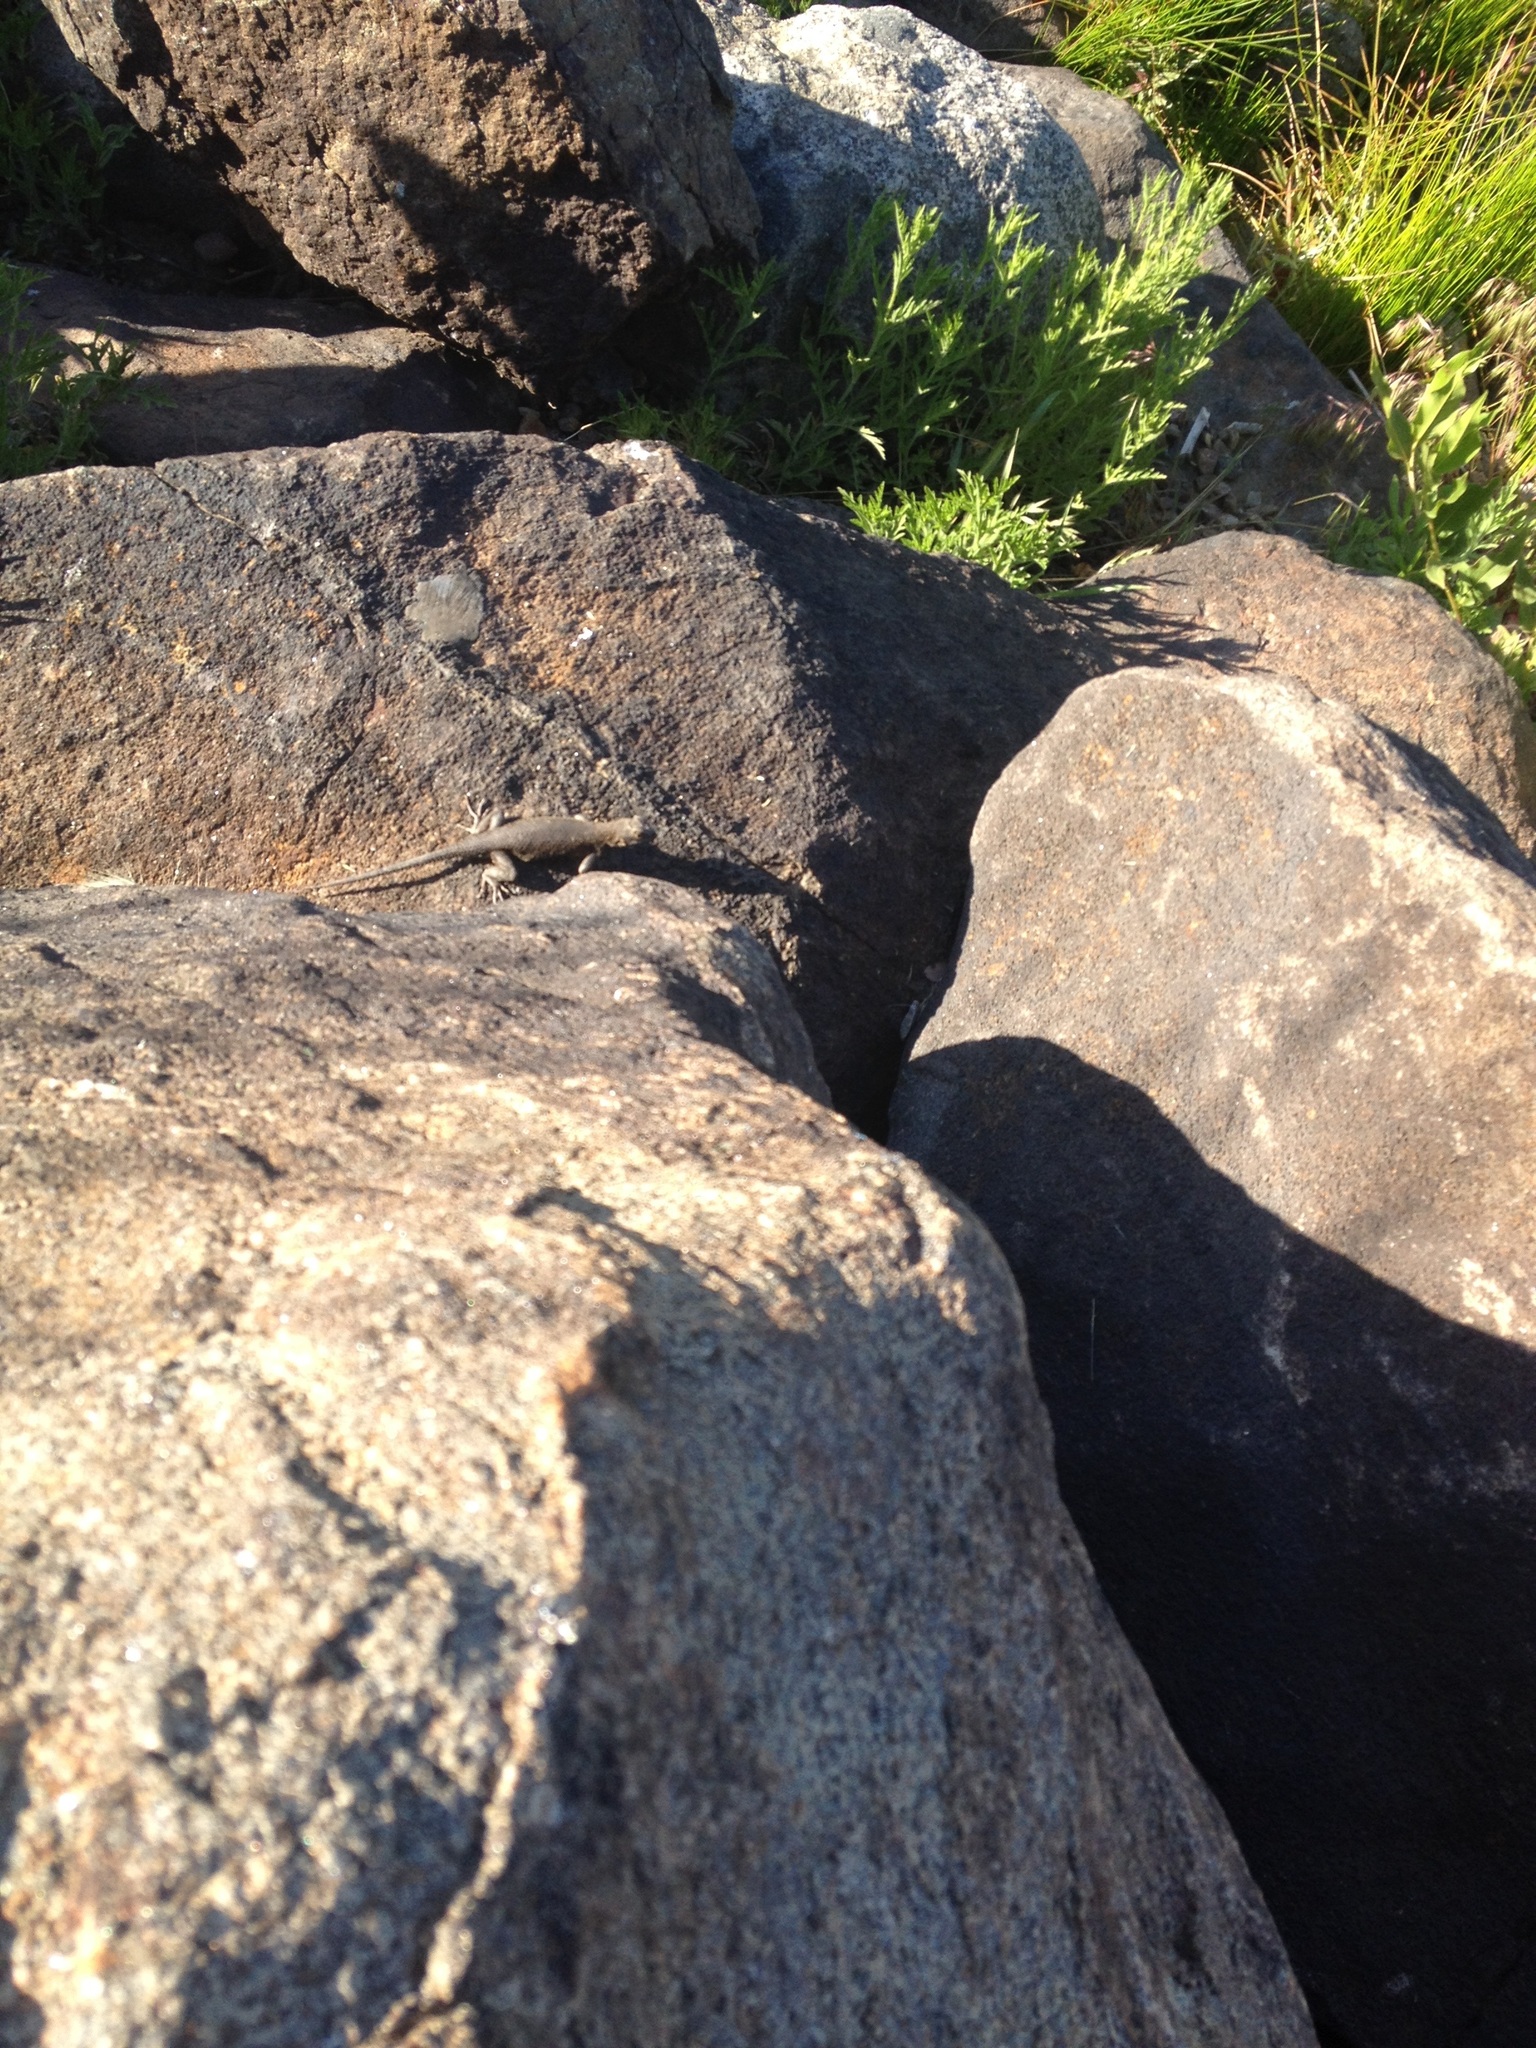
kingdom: Animalia
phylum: Chordata
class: Squamata
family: Phrynosomatidae
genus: Sceloporus
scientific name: Sceloporus occidentalis
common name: Western fence lizard
